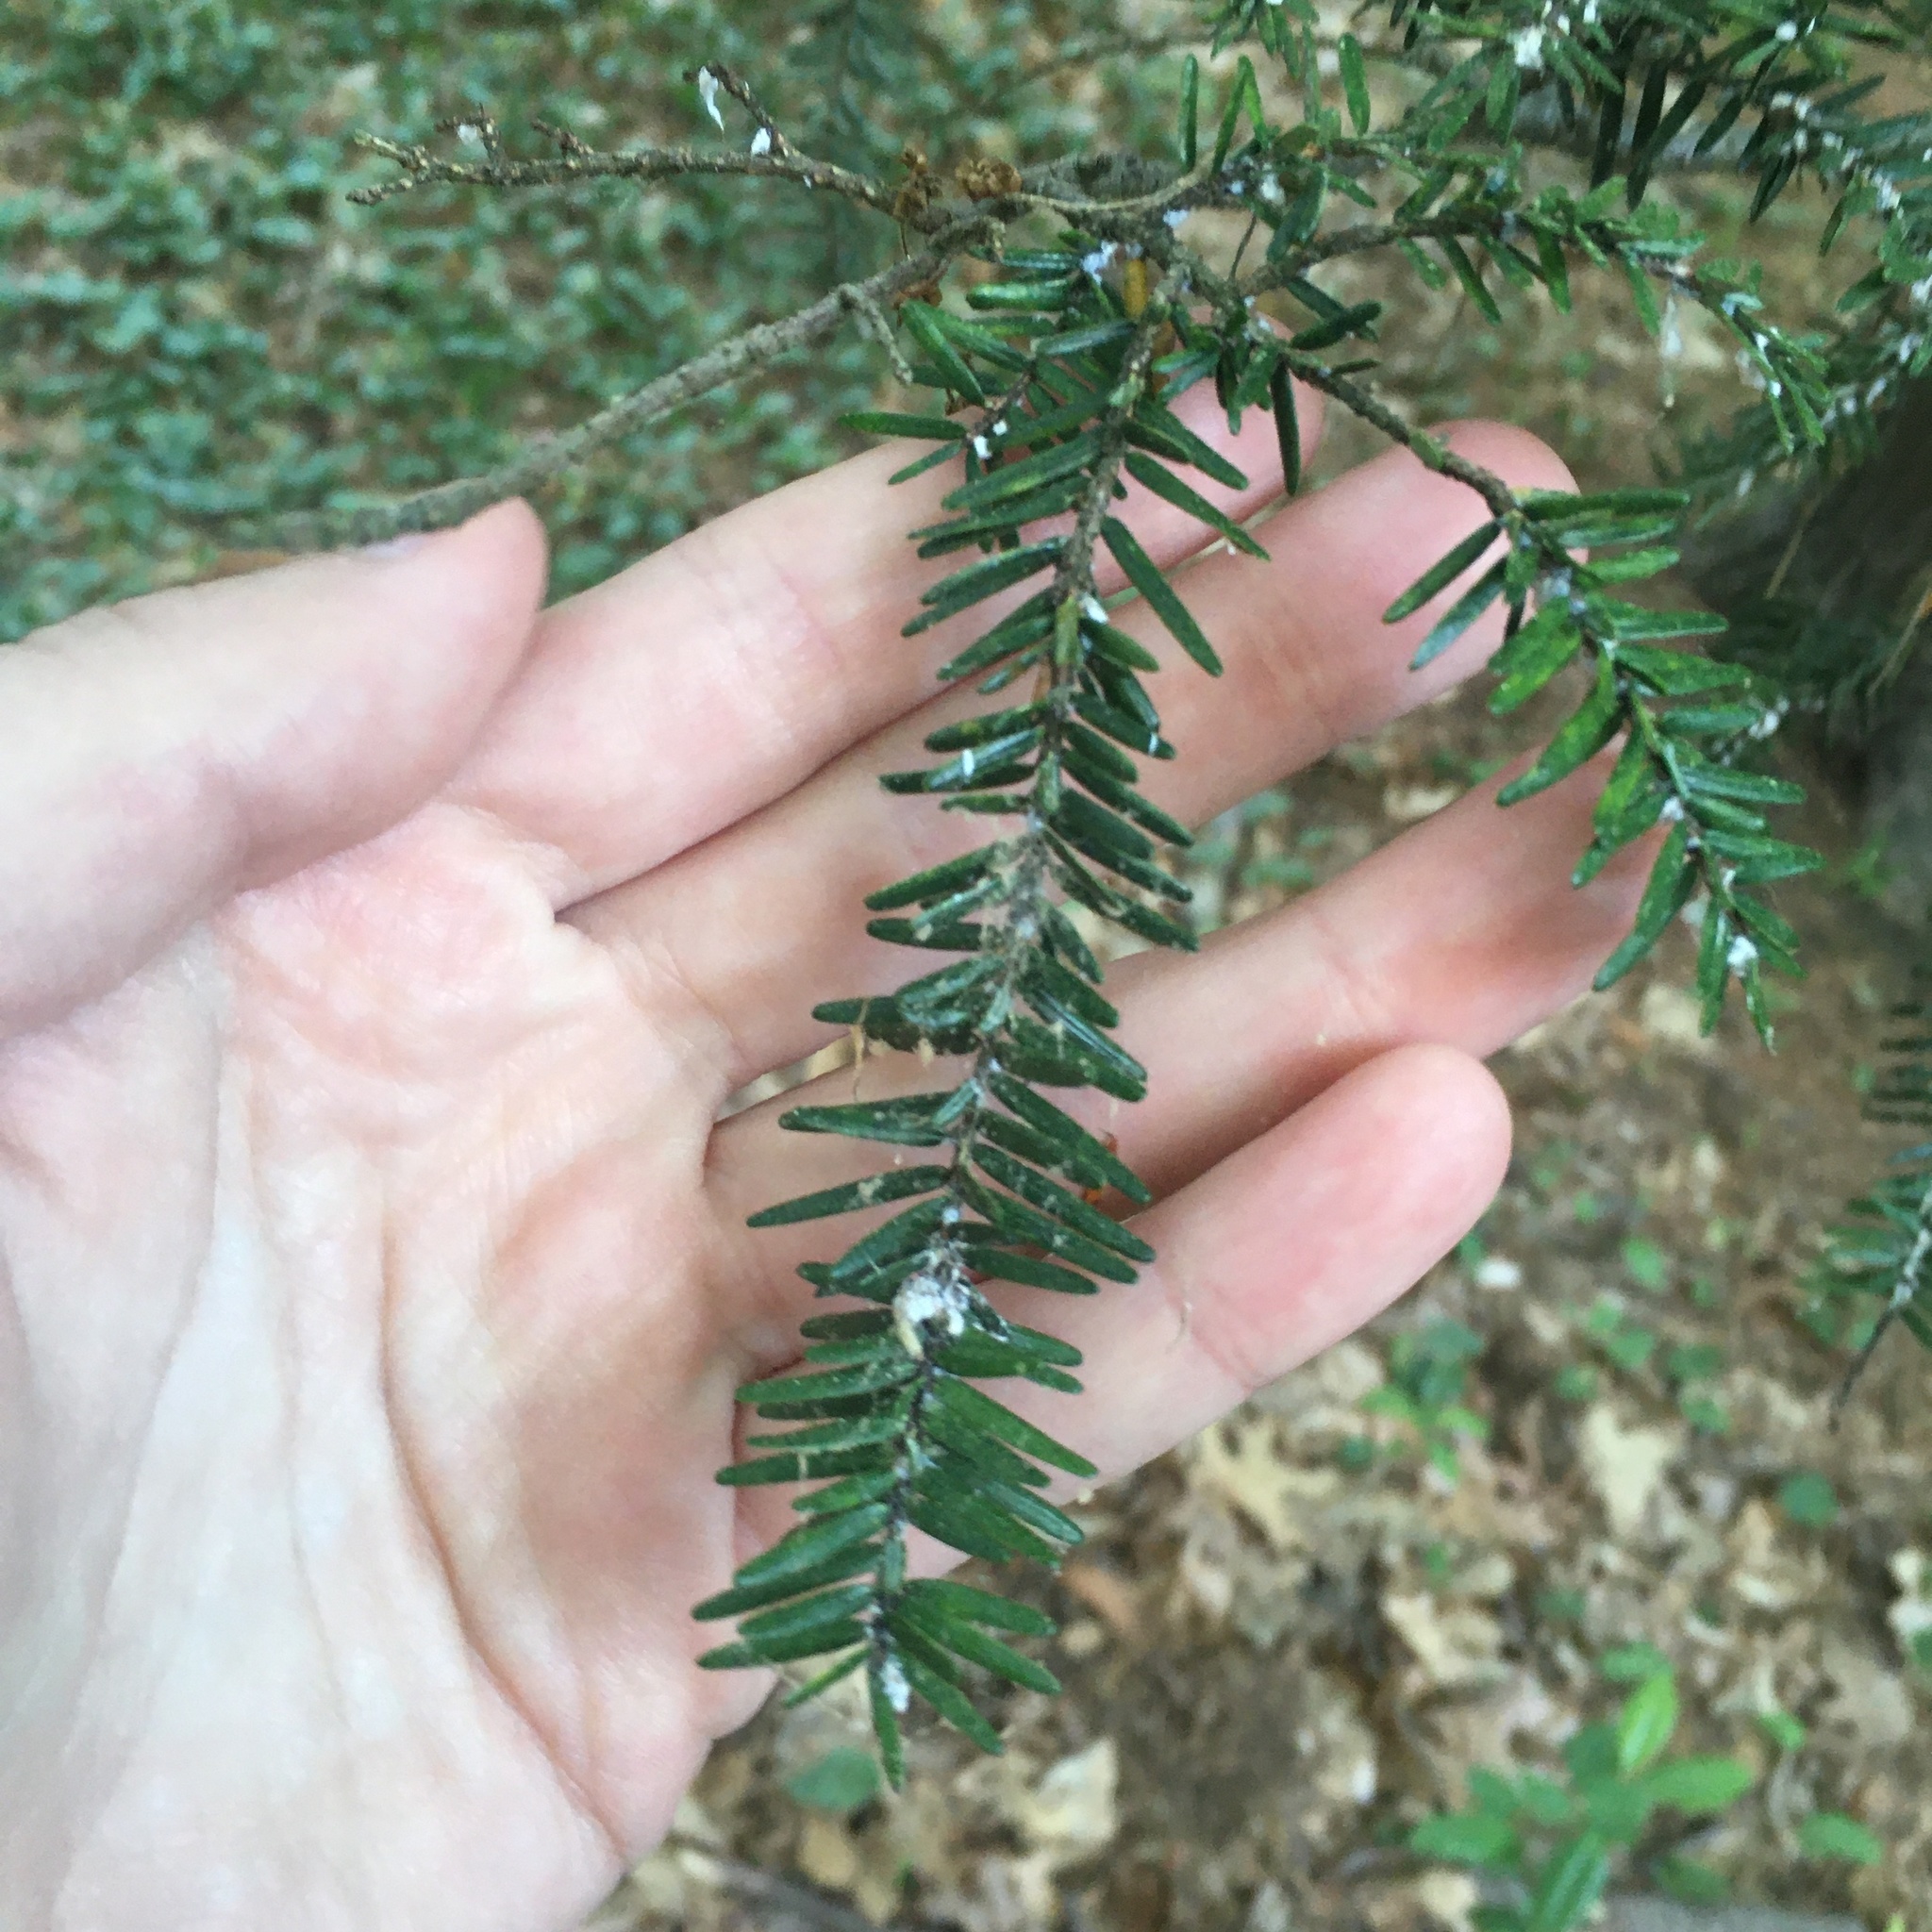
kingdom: Plantae
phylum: Tracheophyta
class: Pinopsida
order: Pinales
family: Pinaceae
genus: Tsuga
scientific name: Tsuga canadensis
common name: Eastern hemlock
